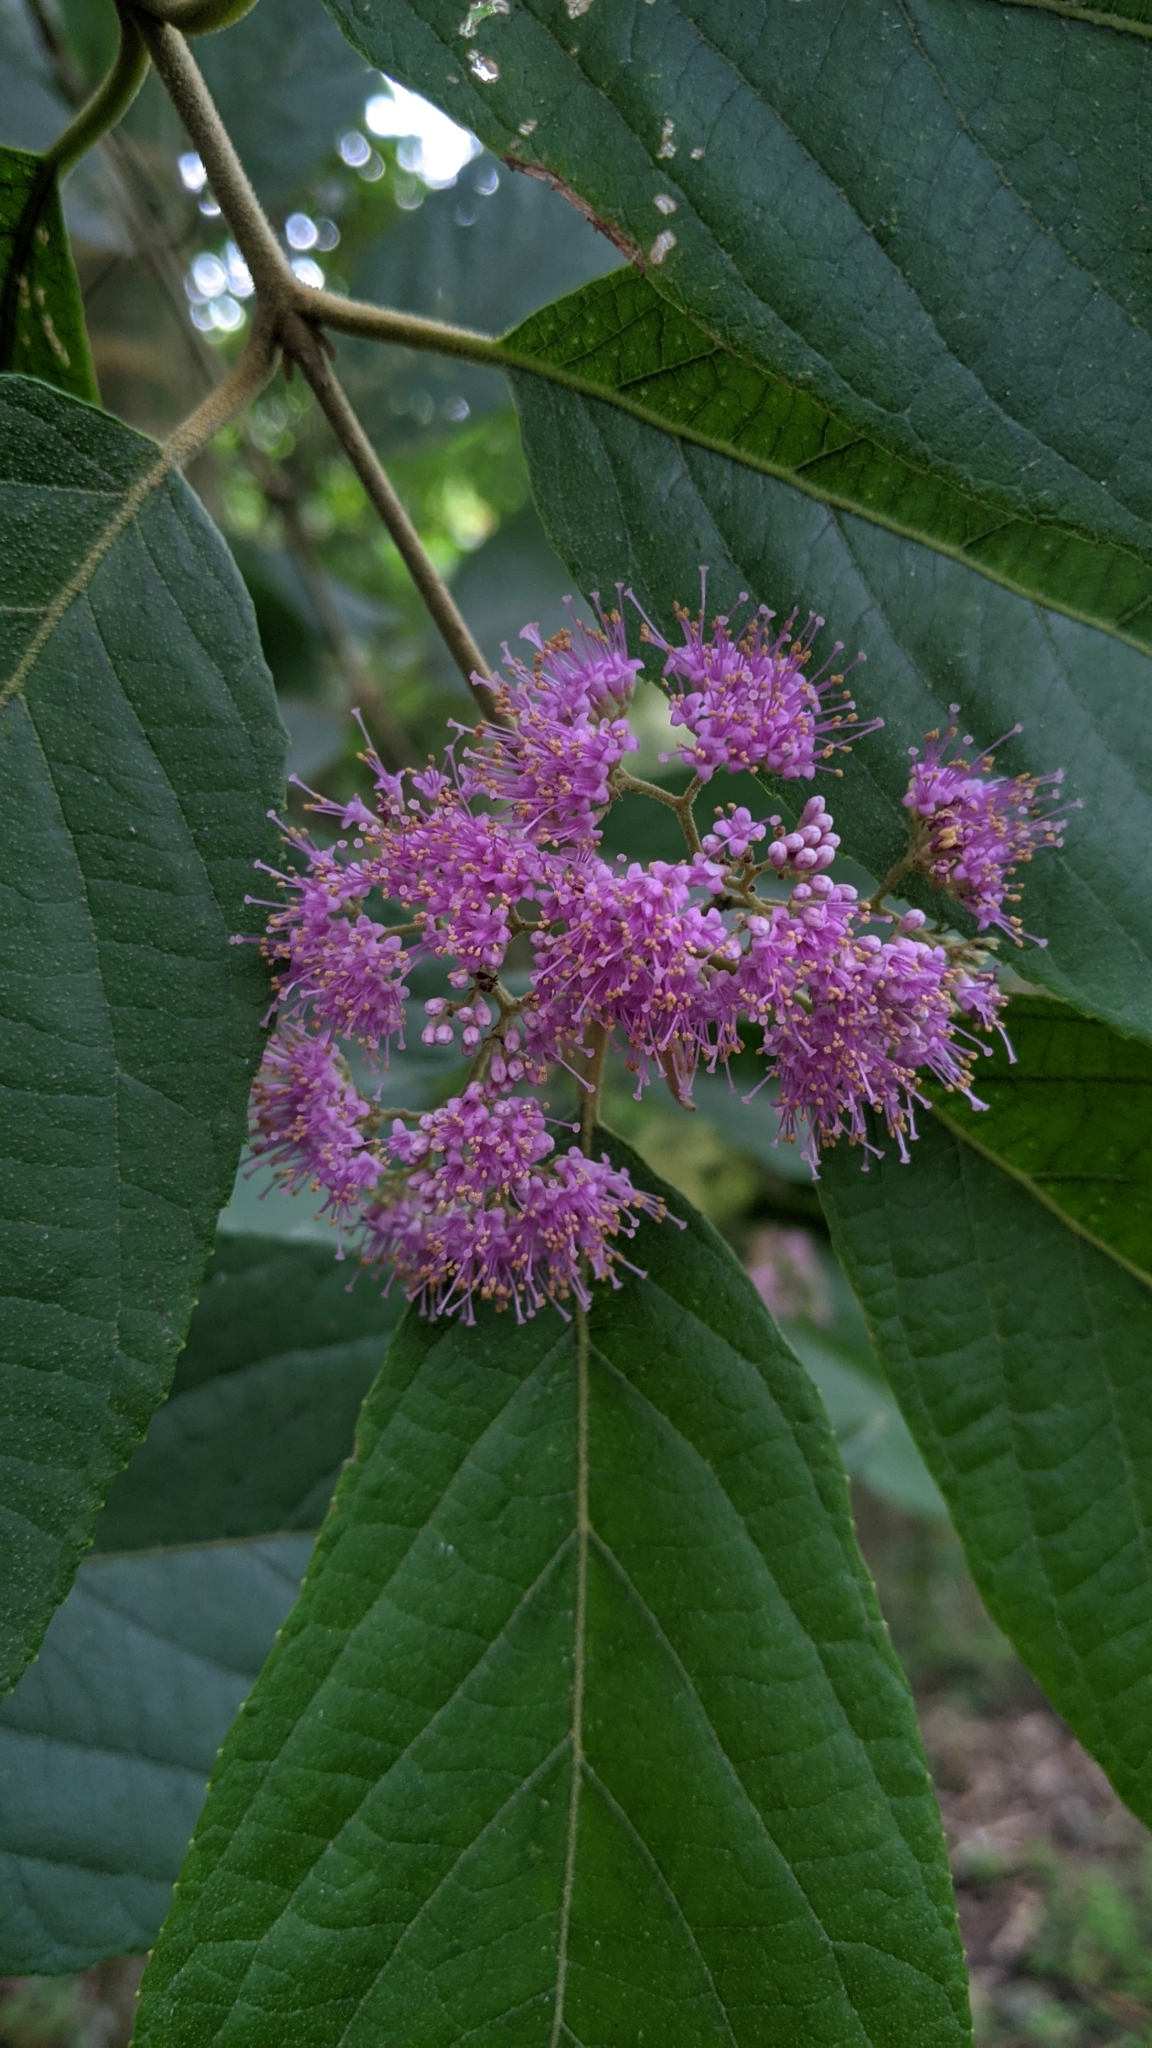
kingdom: Plantae
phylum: Tracheophyta
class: Magnoliopsida
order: Lamiales
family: Lamiaceae
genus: Callicarpa
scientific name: Callicarpa pedunculata
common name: Velvetleaf
